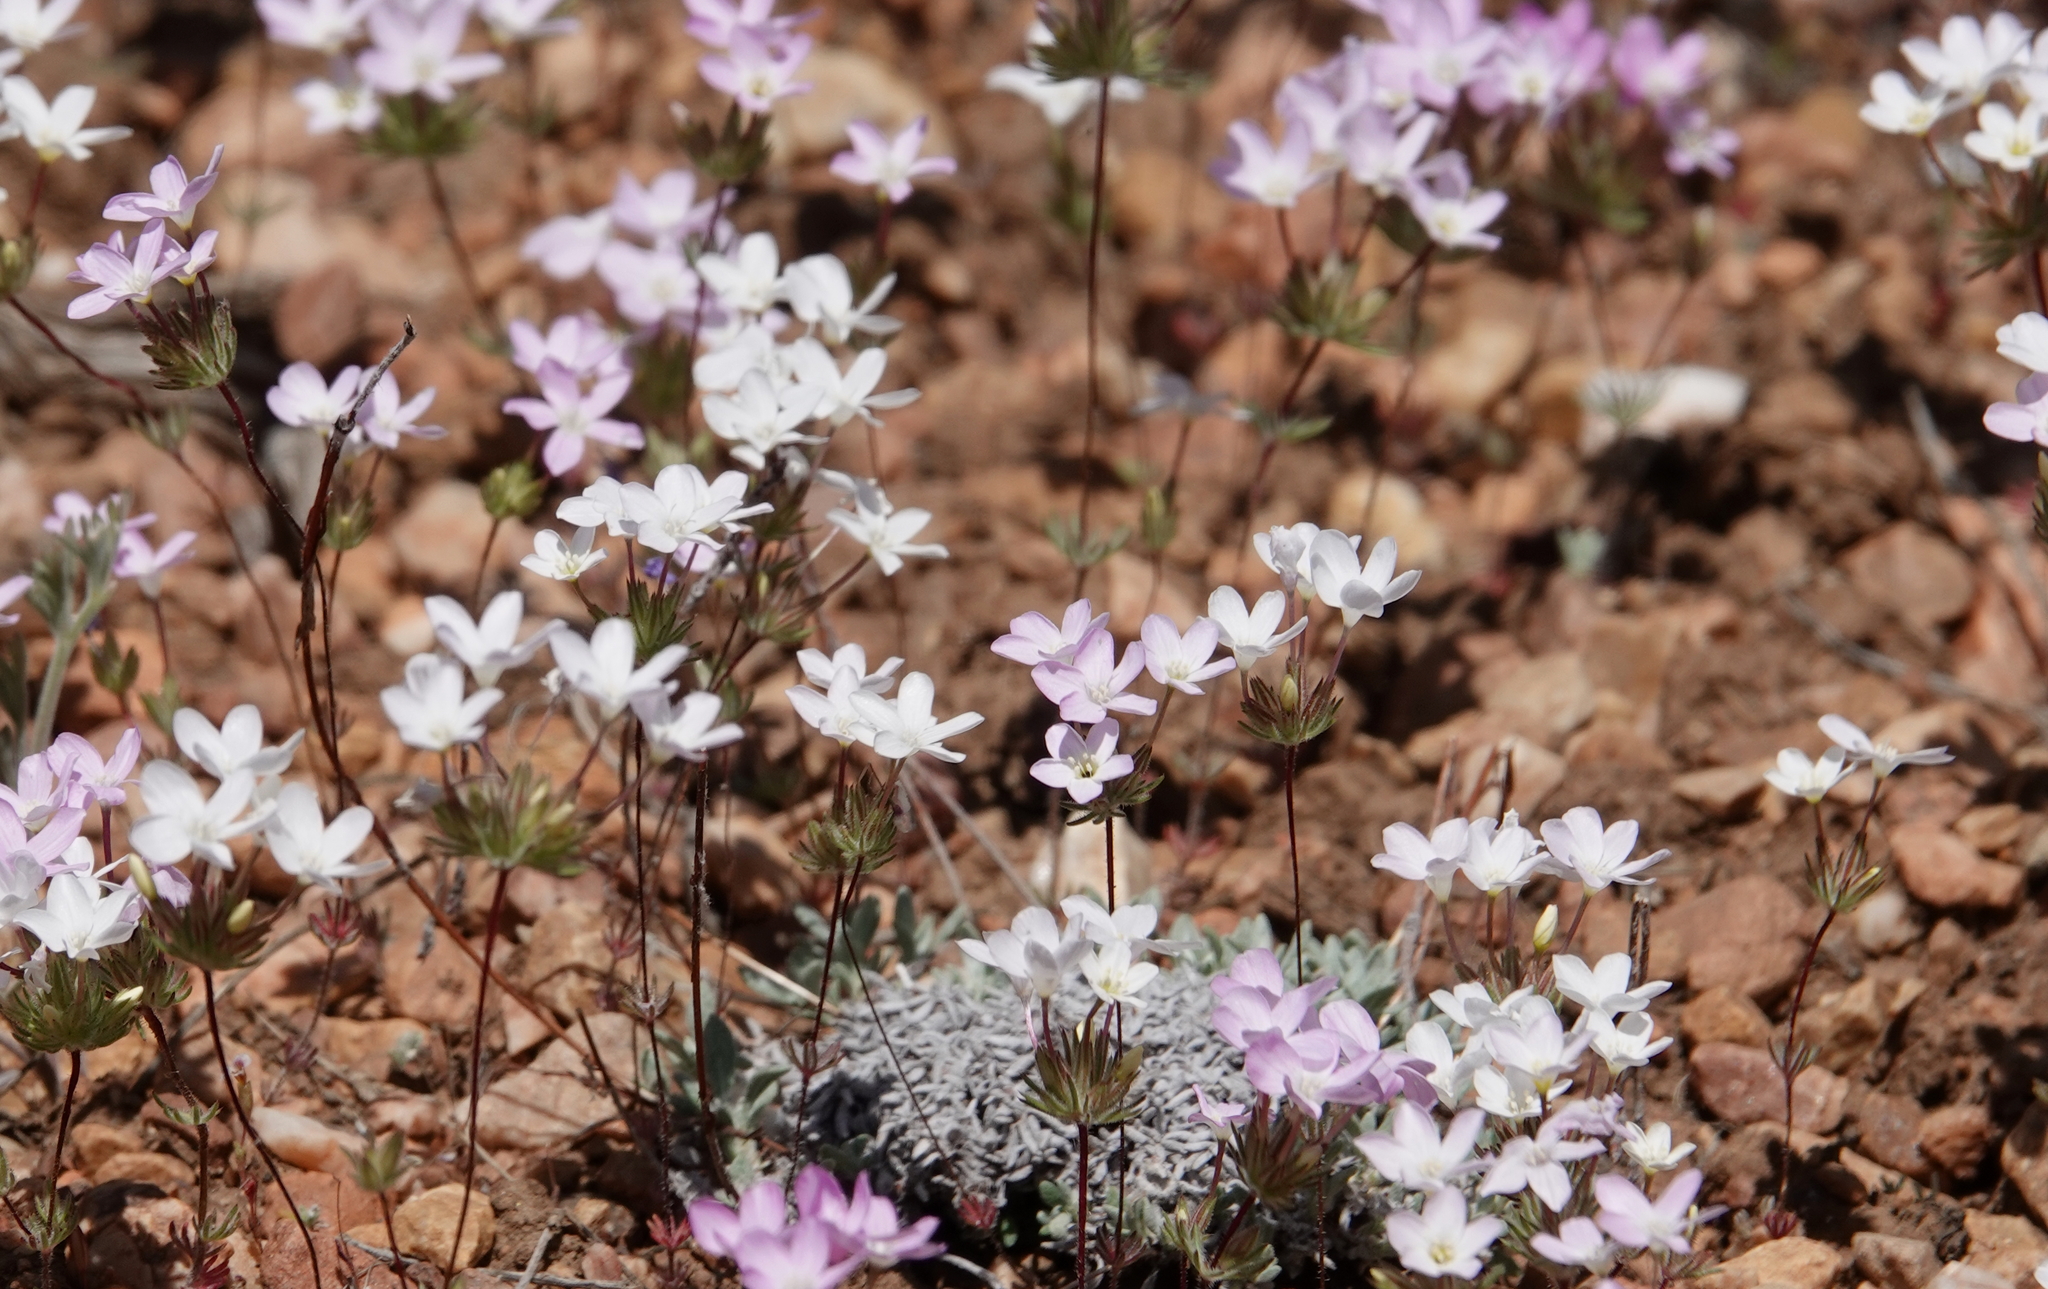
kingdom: Plantae
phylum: Tracheophyta
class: Magnoliopsida
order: Ericales
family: Polemoniaceae
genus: Leptosiphon
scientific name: Leptosiphon breviculus
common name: Mojave linanthus
